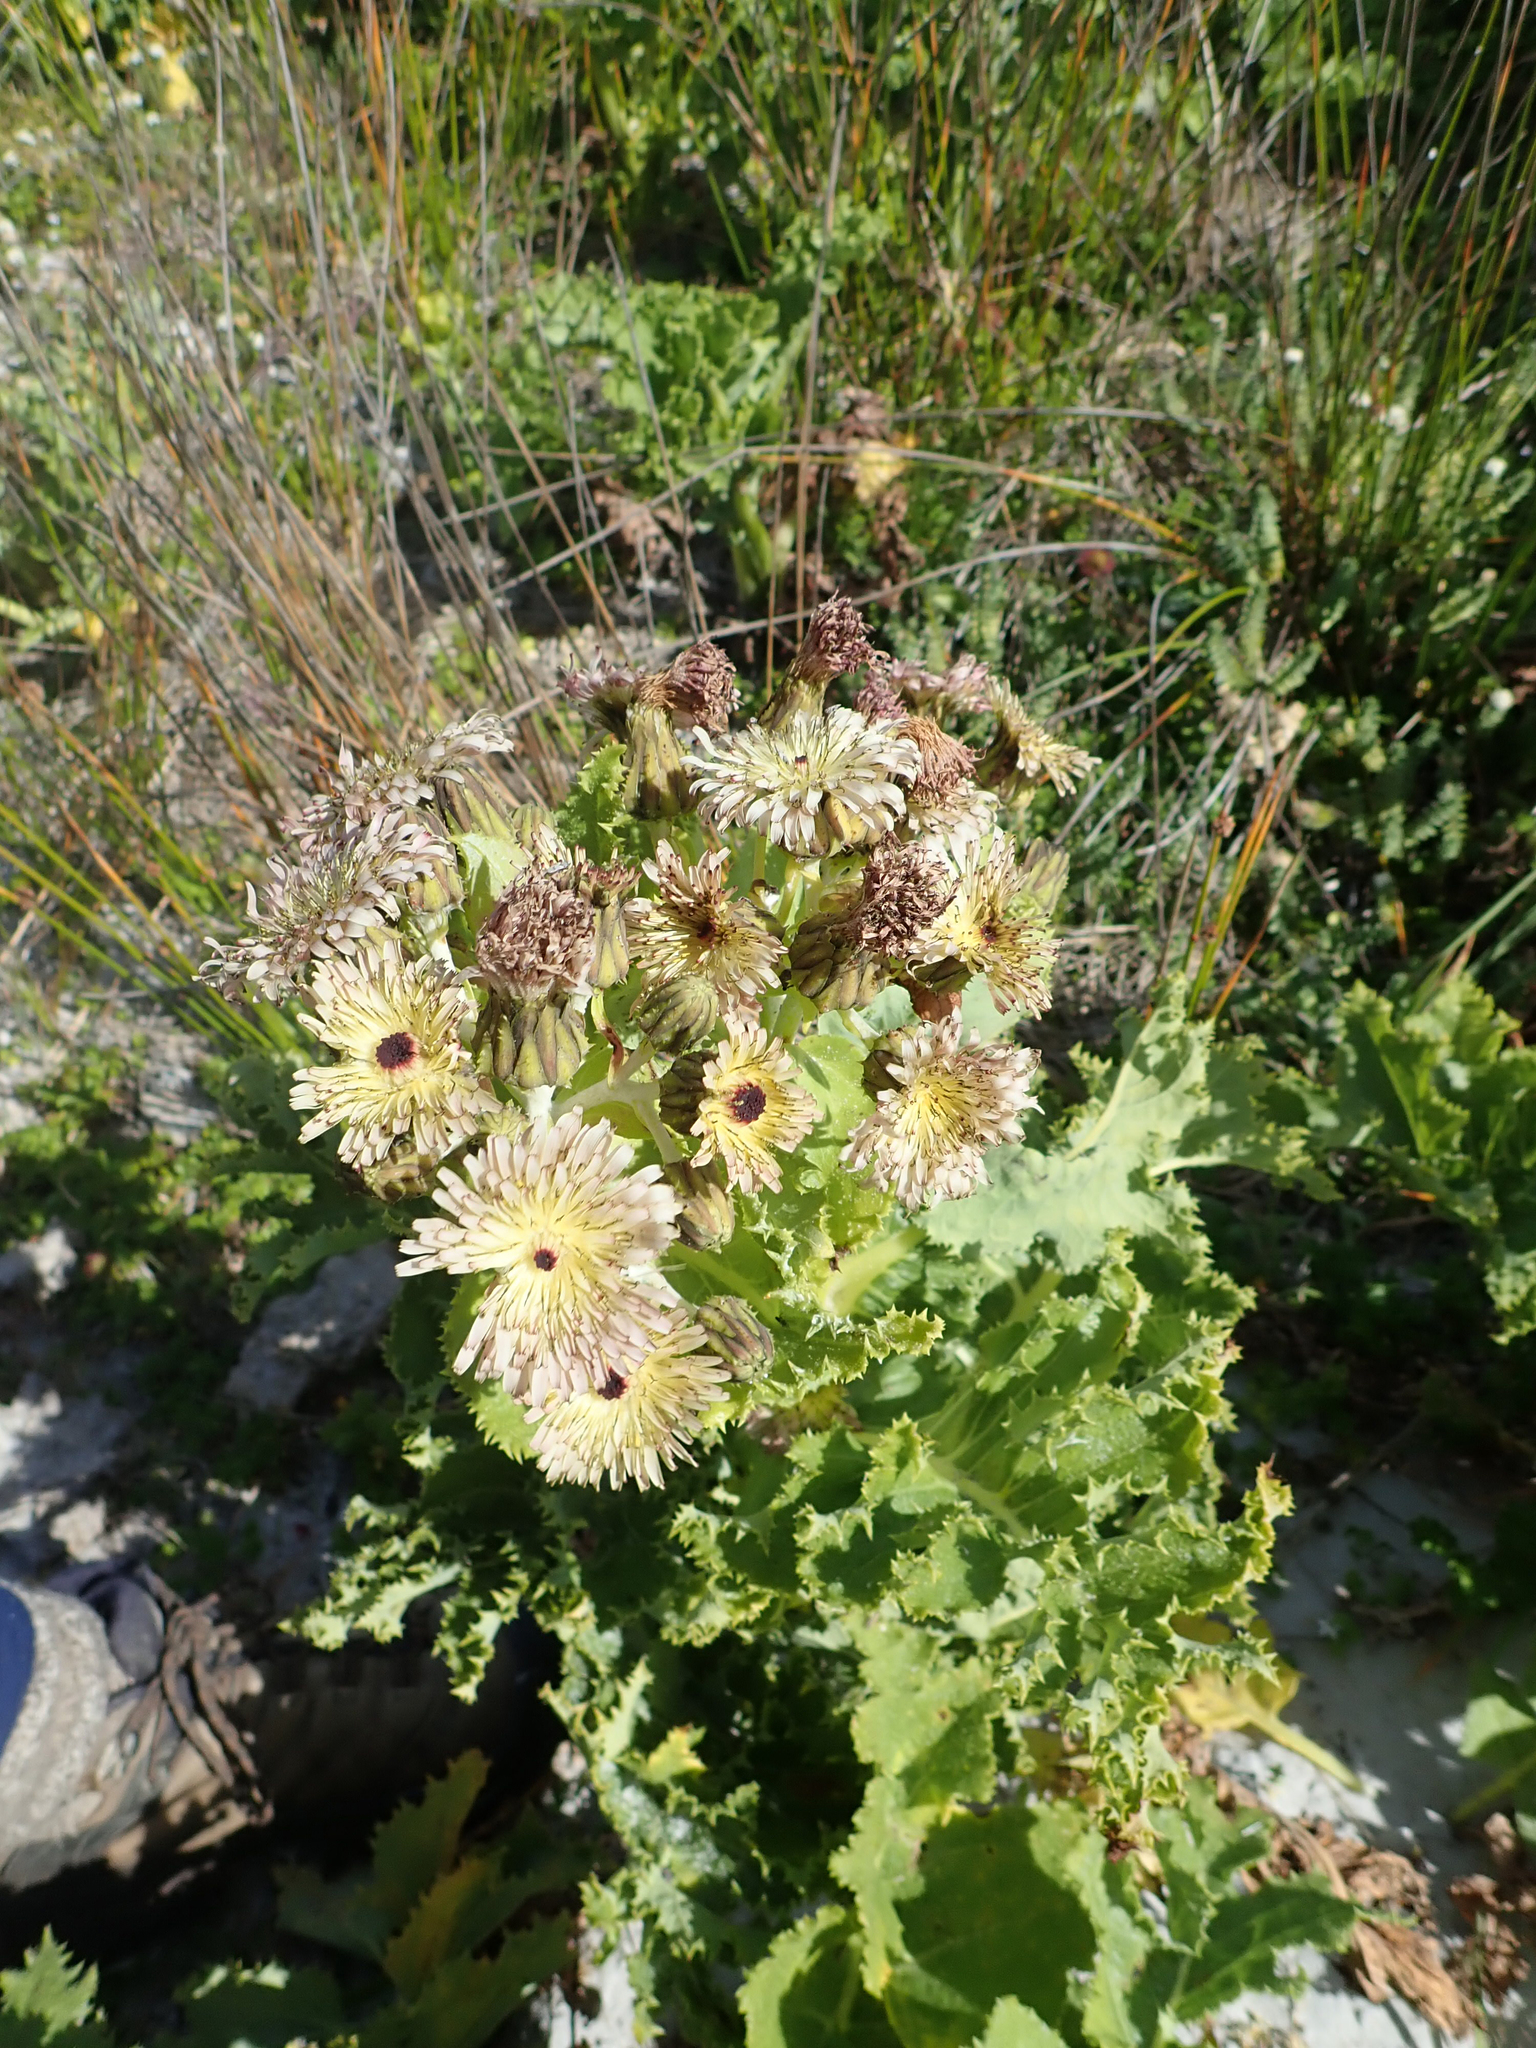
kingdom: Plantae
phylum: Tracheophyta
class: Magnoliopsida
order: Asterales
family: Asteraceae
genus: Sonchus
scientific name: Sonchus grandifolius
